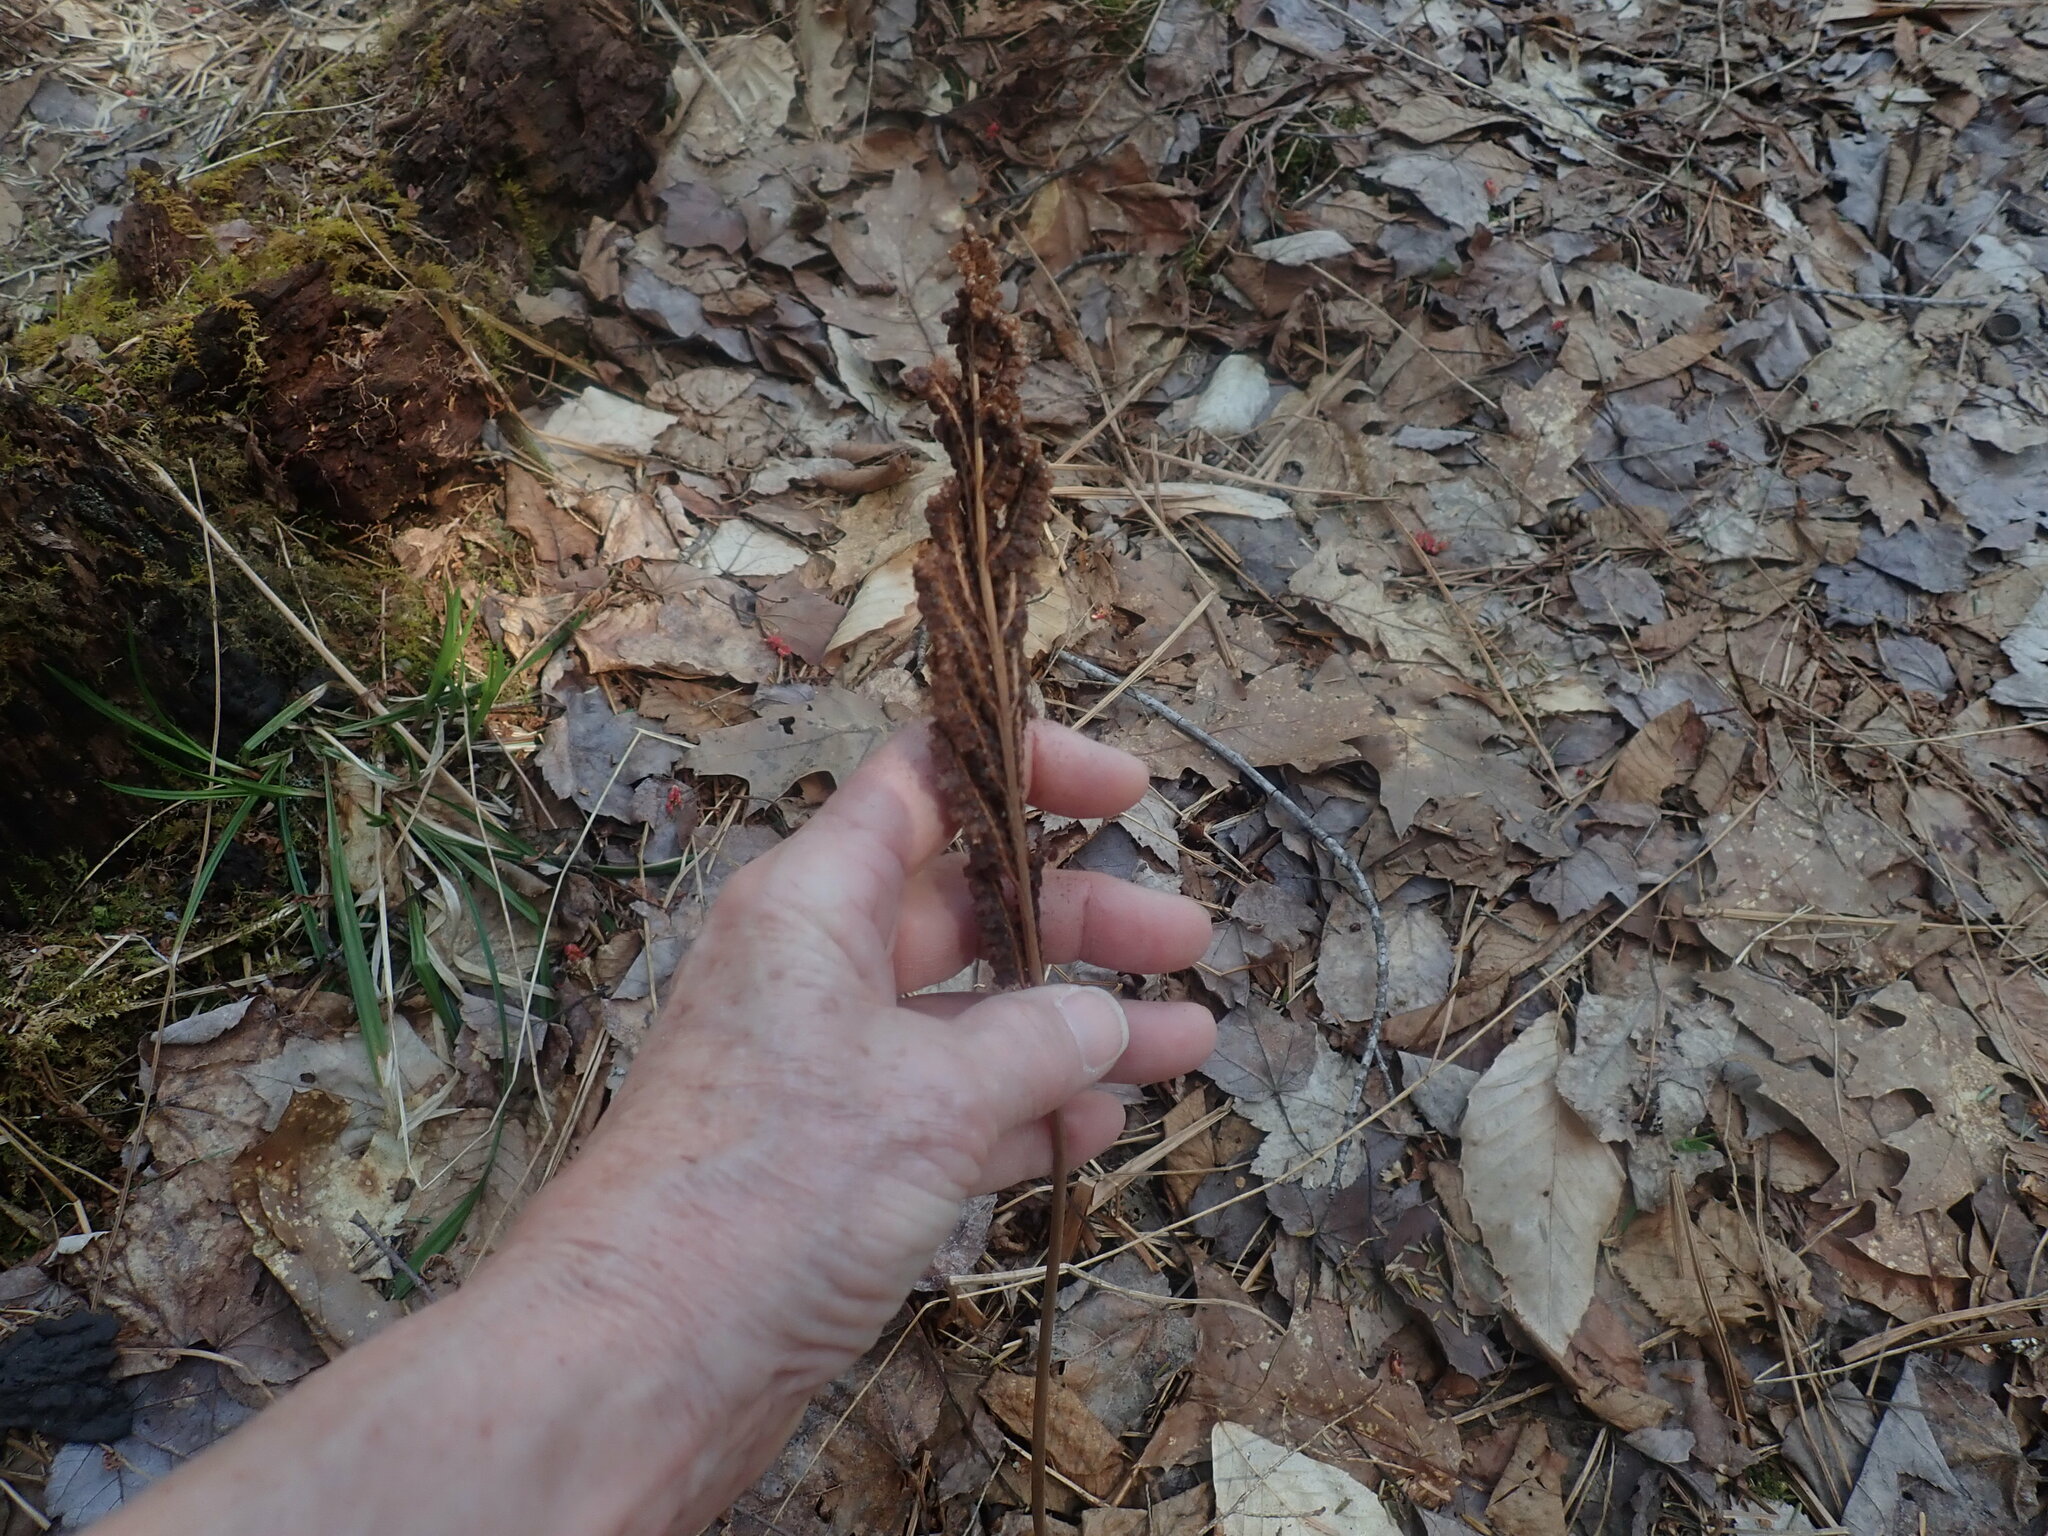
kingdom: Plantae
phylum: Tracheophyta
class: Polypodiopsida
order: Polypodiales
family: Onocleaceae
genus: Onoclea
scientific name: Onoclea sensibilis
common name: Sensitive fern
